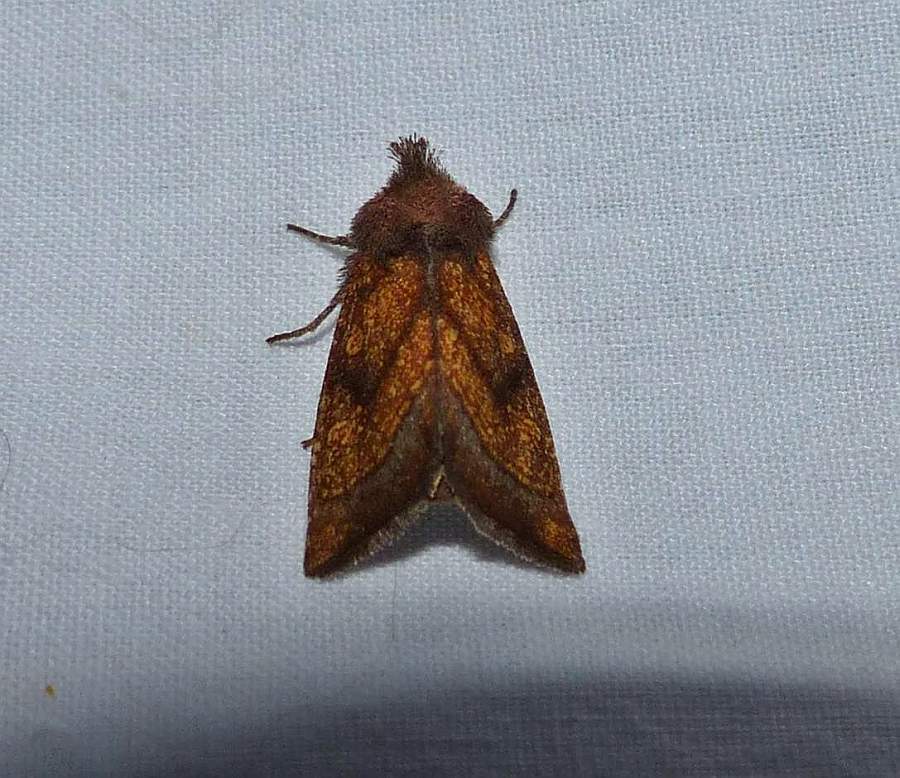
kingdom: Animalia
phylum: Arthropoda
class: Insecta
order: Lepidoptera
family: Noctuidae
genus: Papaipema
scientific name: Papaipema impecuniosa
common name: Aster borer moth
